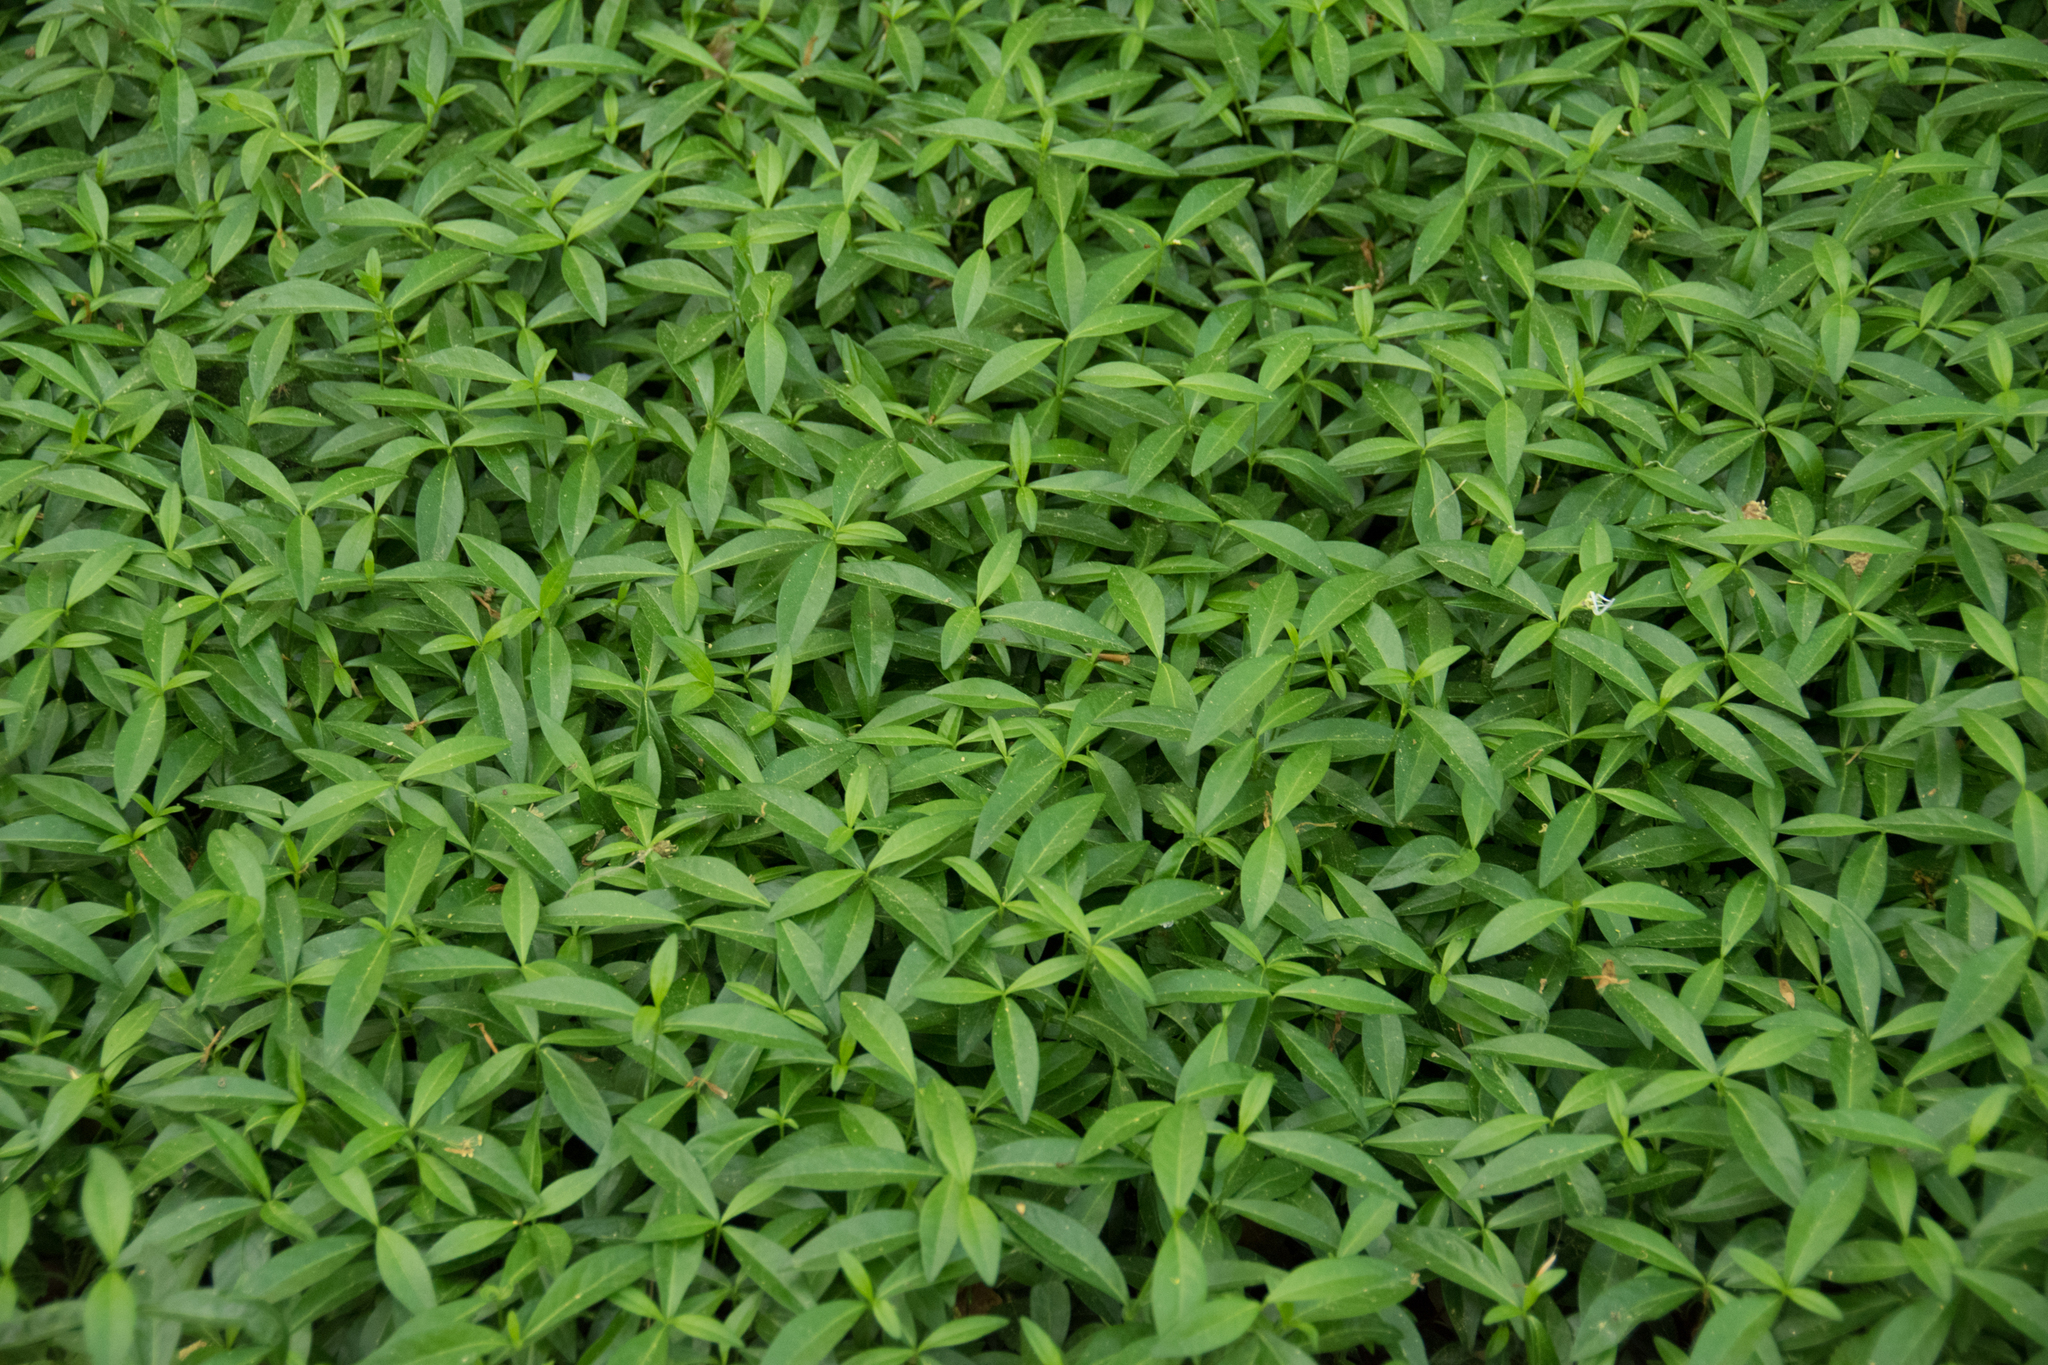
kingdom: Plantae
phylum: Tracheophyta
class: Magnoliopsida
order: Gentianales
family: Apocynaceae
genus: Vinca
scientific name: Vinca minor
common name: Lesser periwinkle
